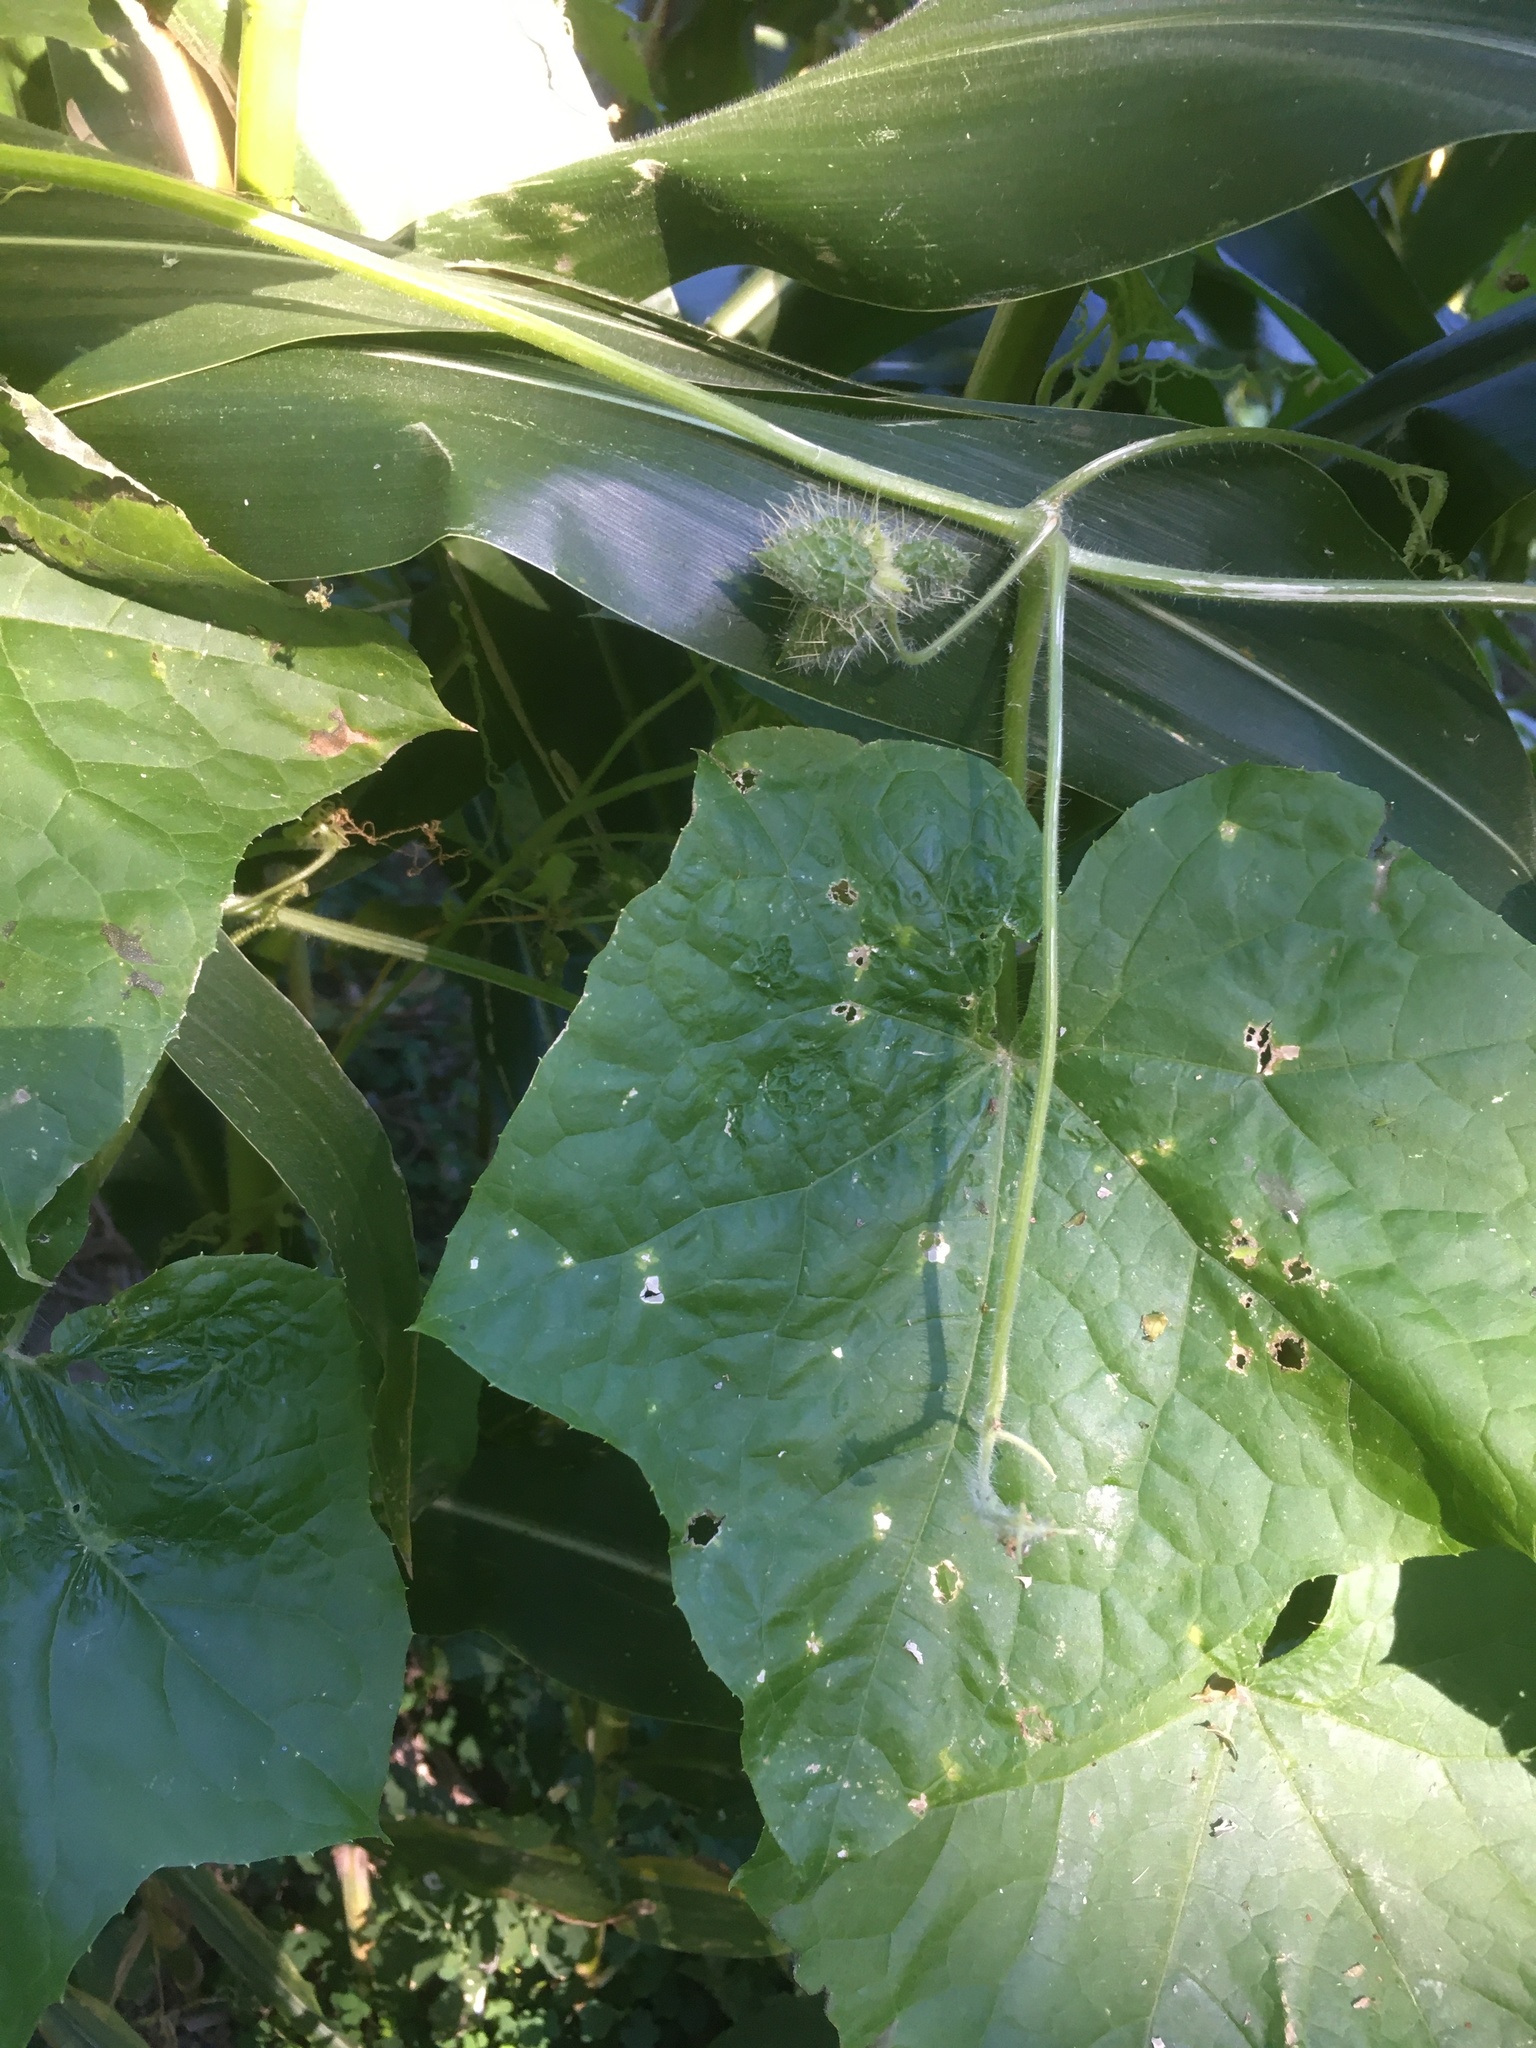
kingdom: Plantae
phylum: Tracheophyta
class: Magnoliopsida
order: Cucurbitales
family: Cucurbitaceae
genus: Sicyos
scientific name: Sicyos angulatus
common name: Angled burr cucumber
